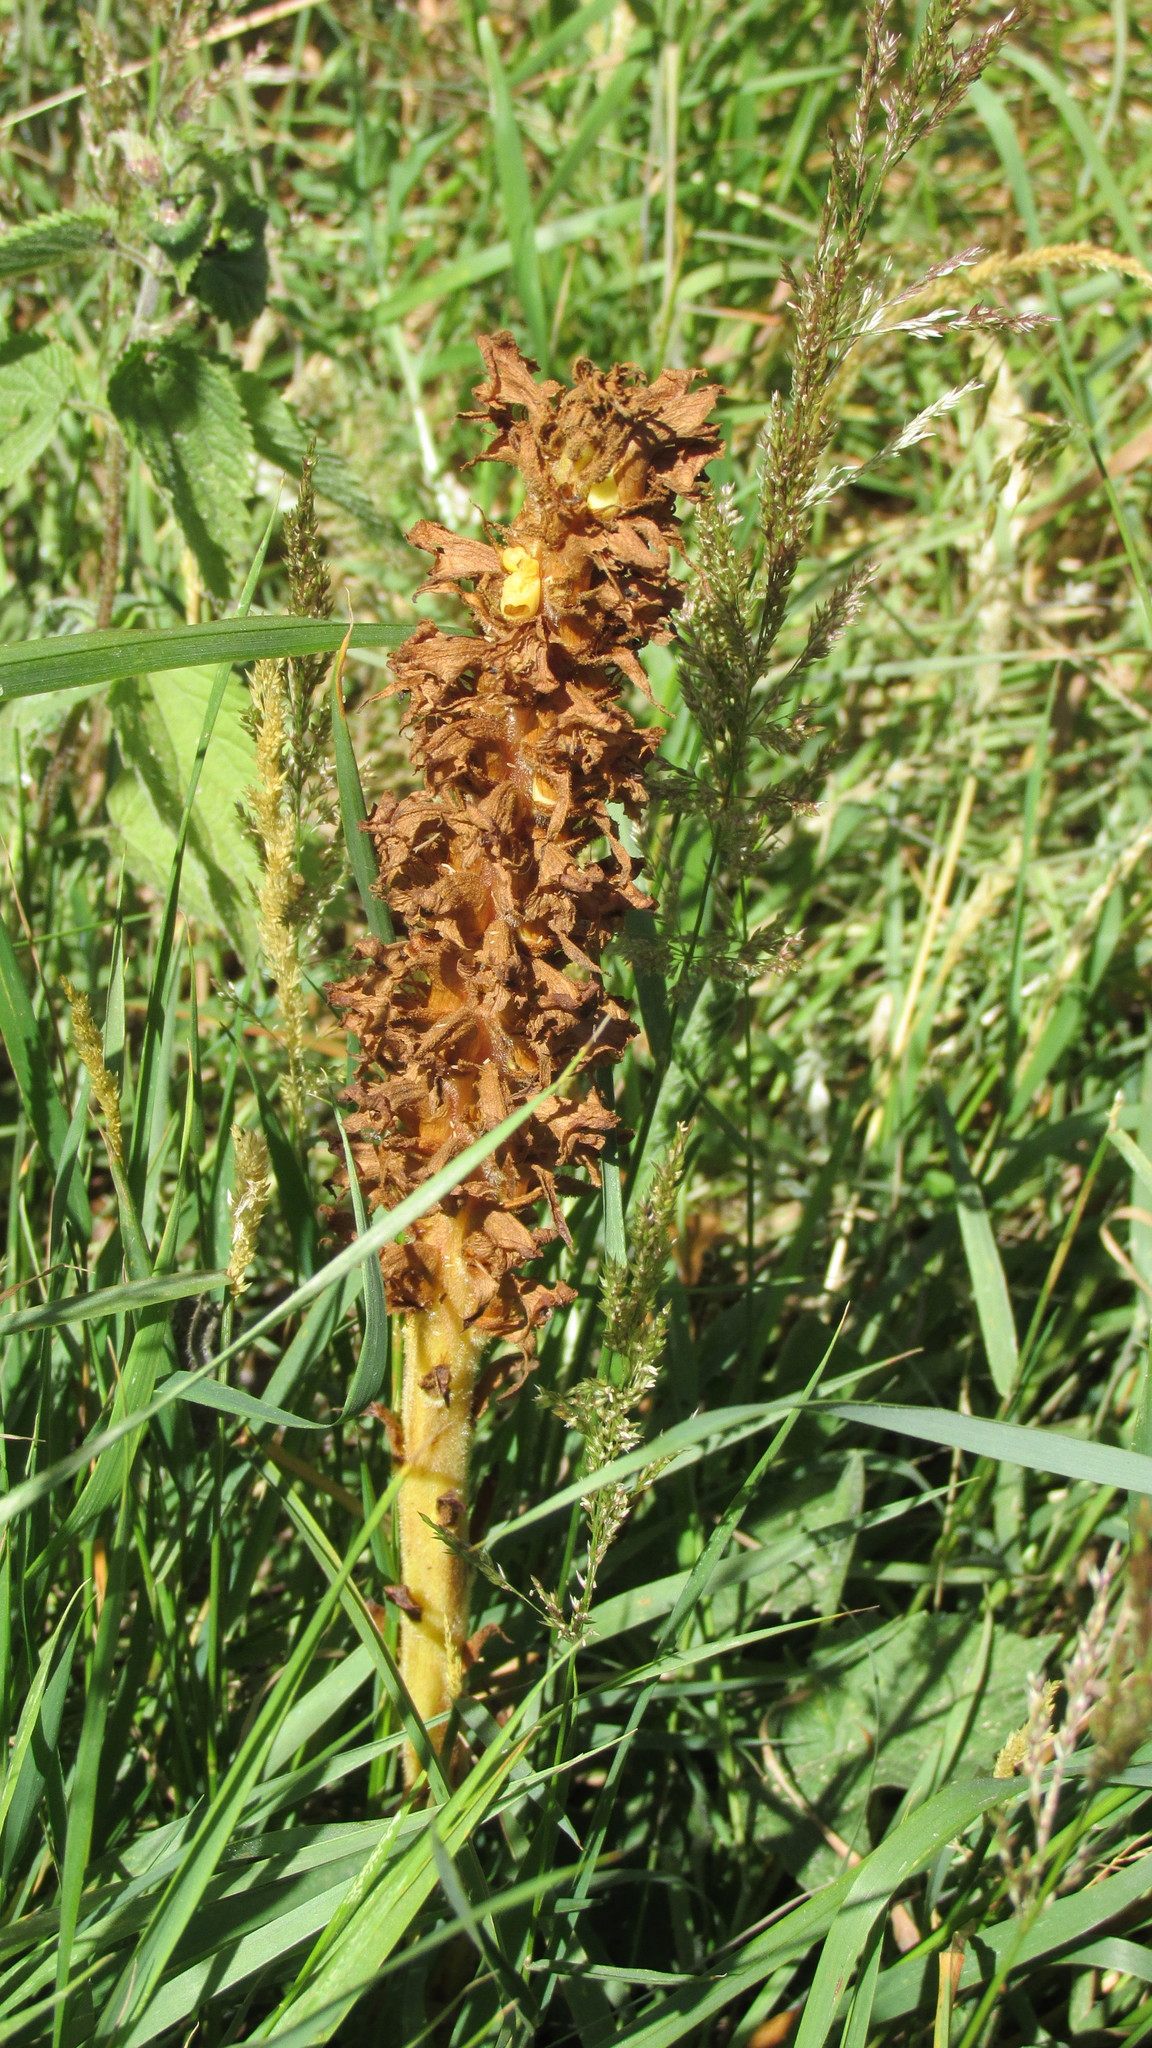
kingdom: Plantae
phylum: Tracheophyta
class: Magnoliopsida
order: Lamiales
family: Orobanchaceae
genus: Orobanche
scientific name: Orobanche elatior
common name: Knapweed broomrape
